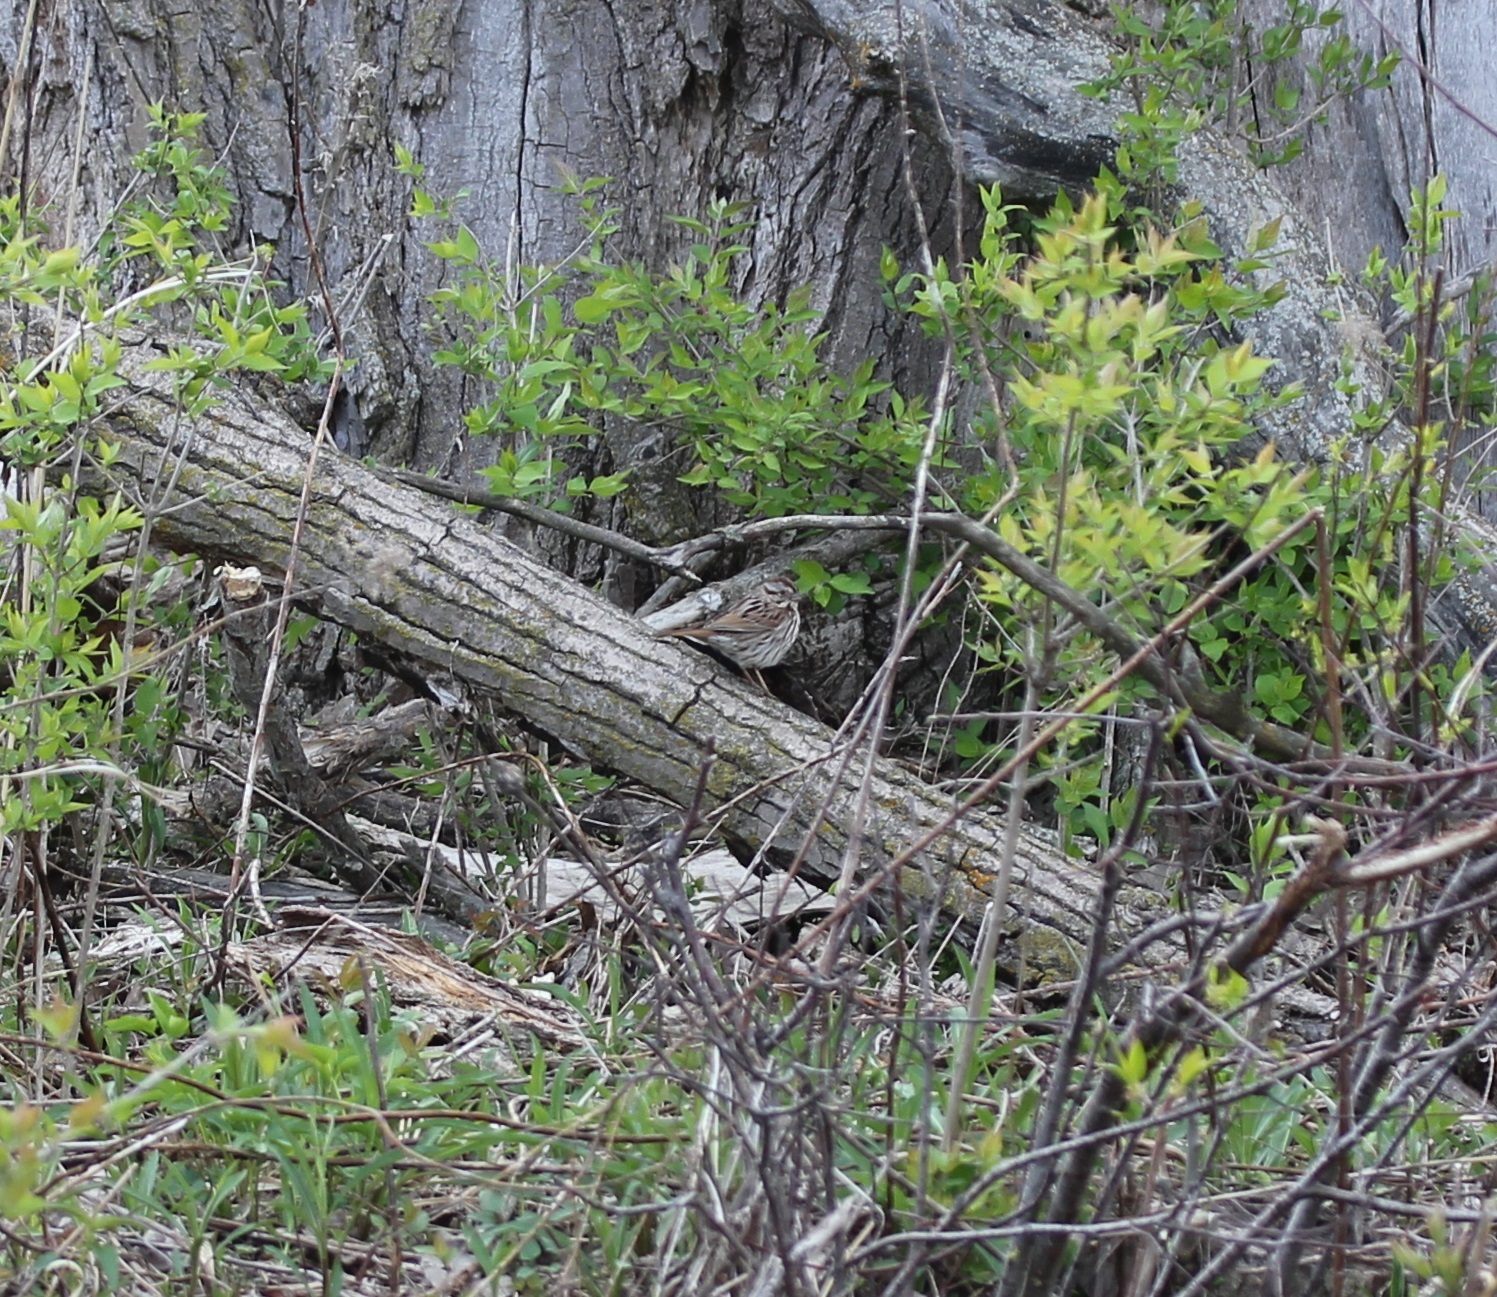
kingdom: Animalia
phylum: Chordata
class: Aves
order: Passeriformes
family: Passerellidae
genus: Melospiza
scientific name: Melospiza melodia
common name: Song sparrow
